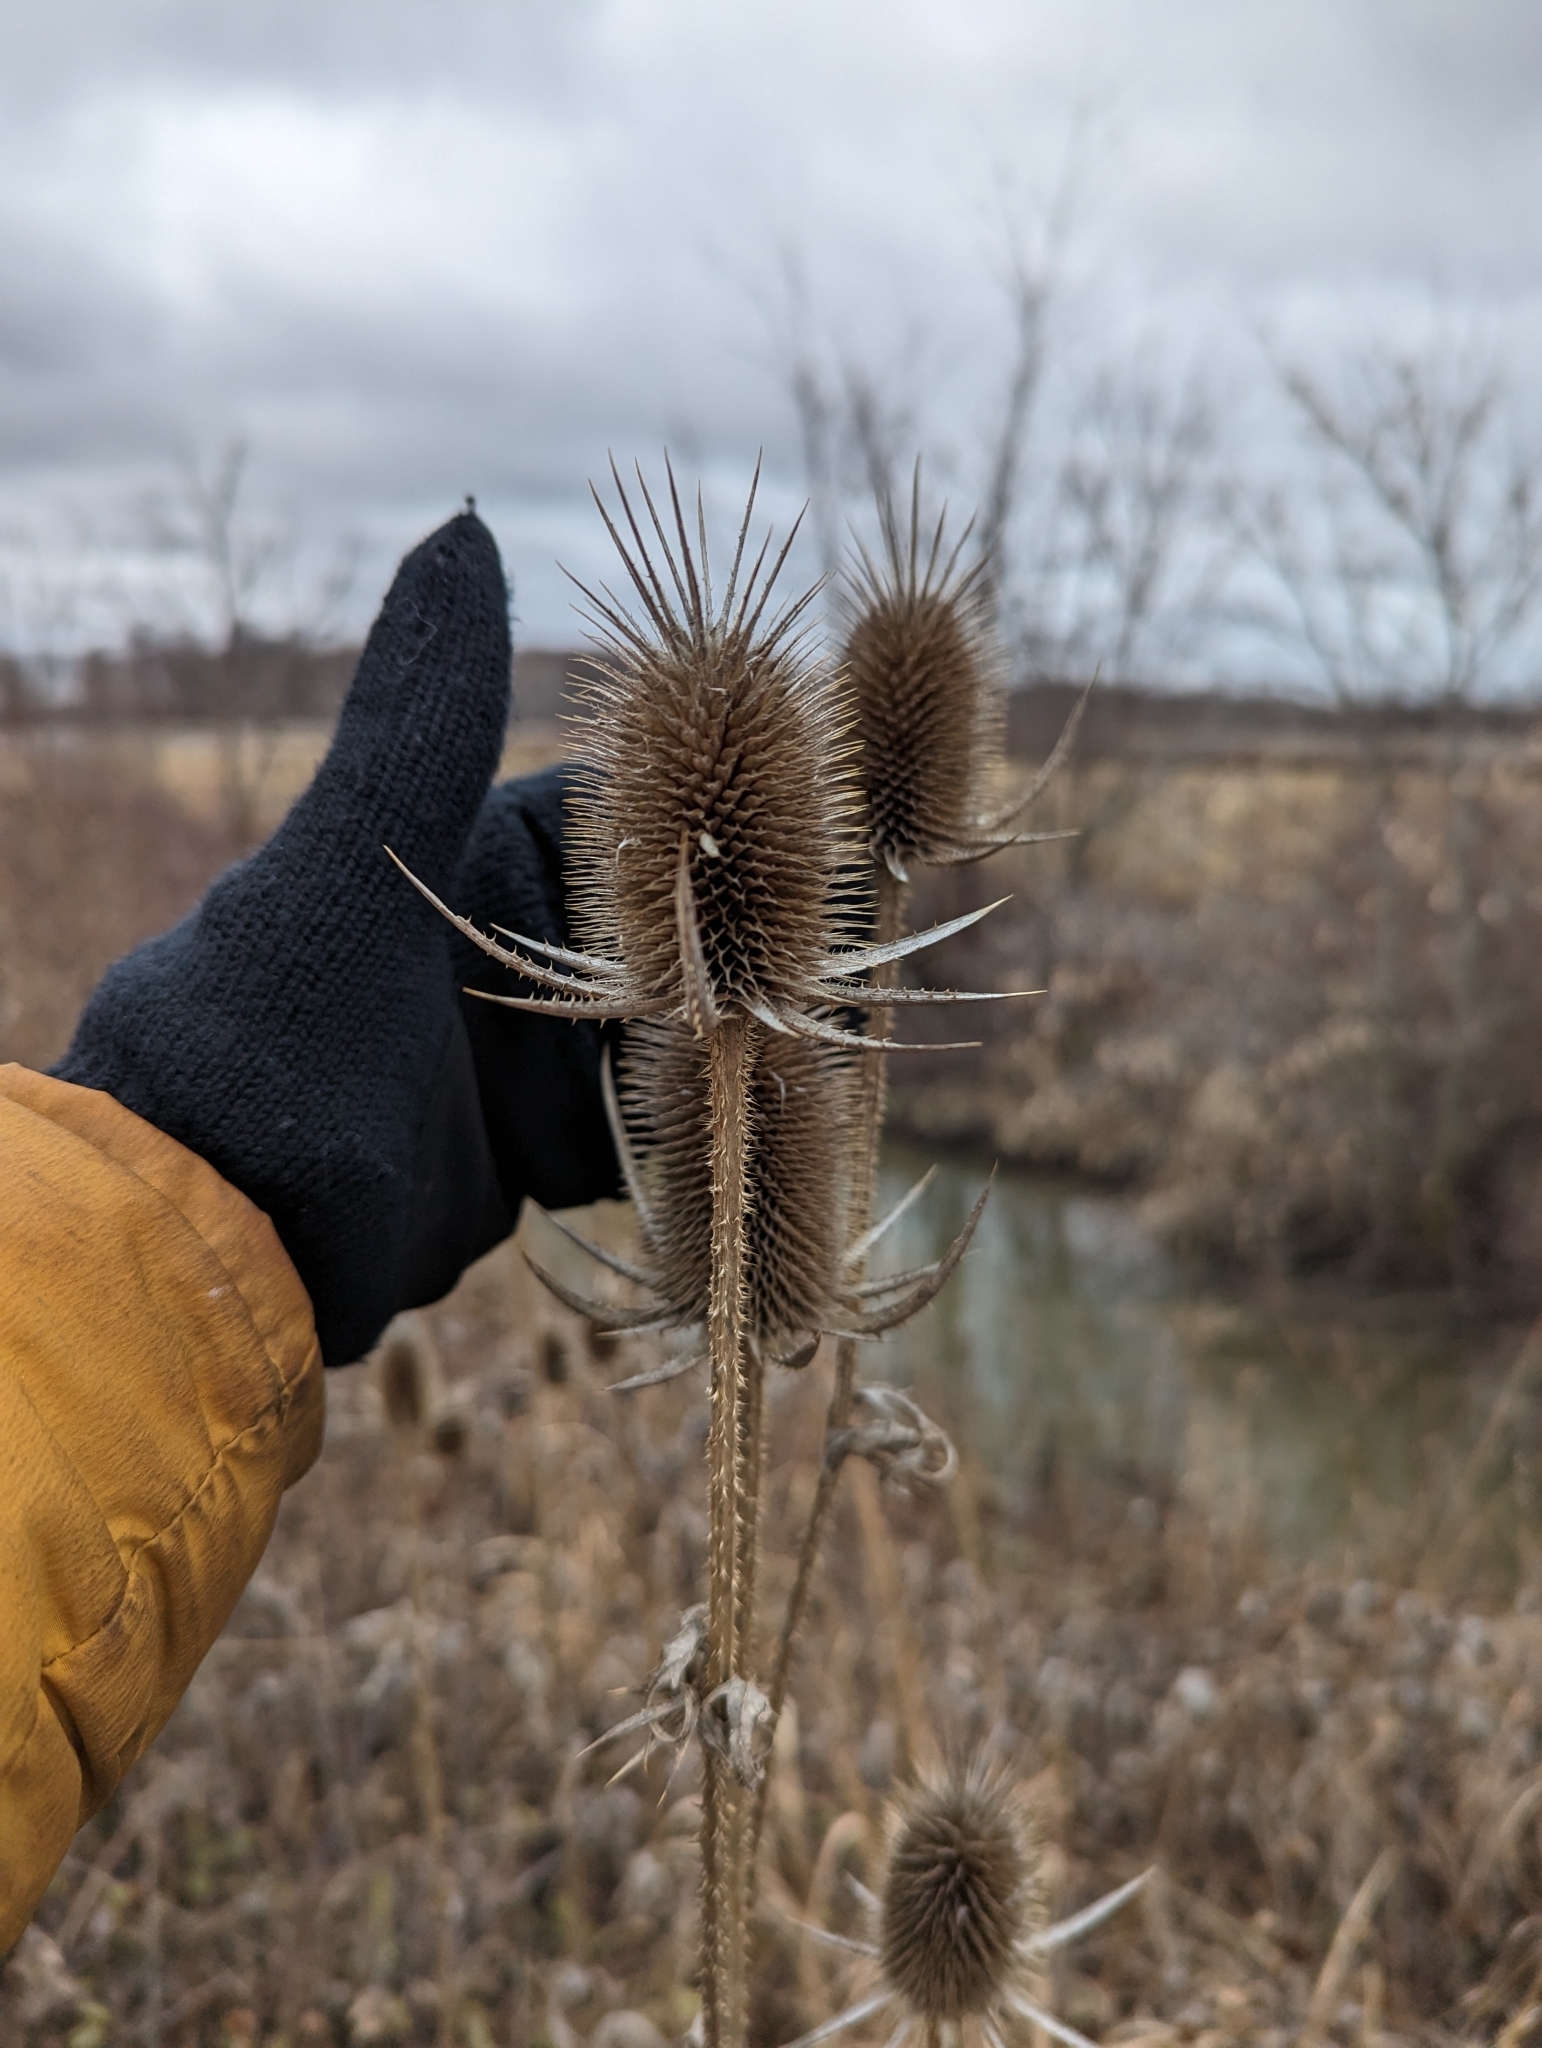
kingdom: Plantae
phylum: Tracheophyta
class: Magnoliopsida
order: Dipsacales
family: Caprifoliaceae
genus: Dipsacus
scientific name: Dipsacus laciniatus
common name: Cut-leaved teasel
